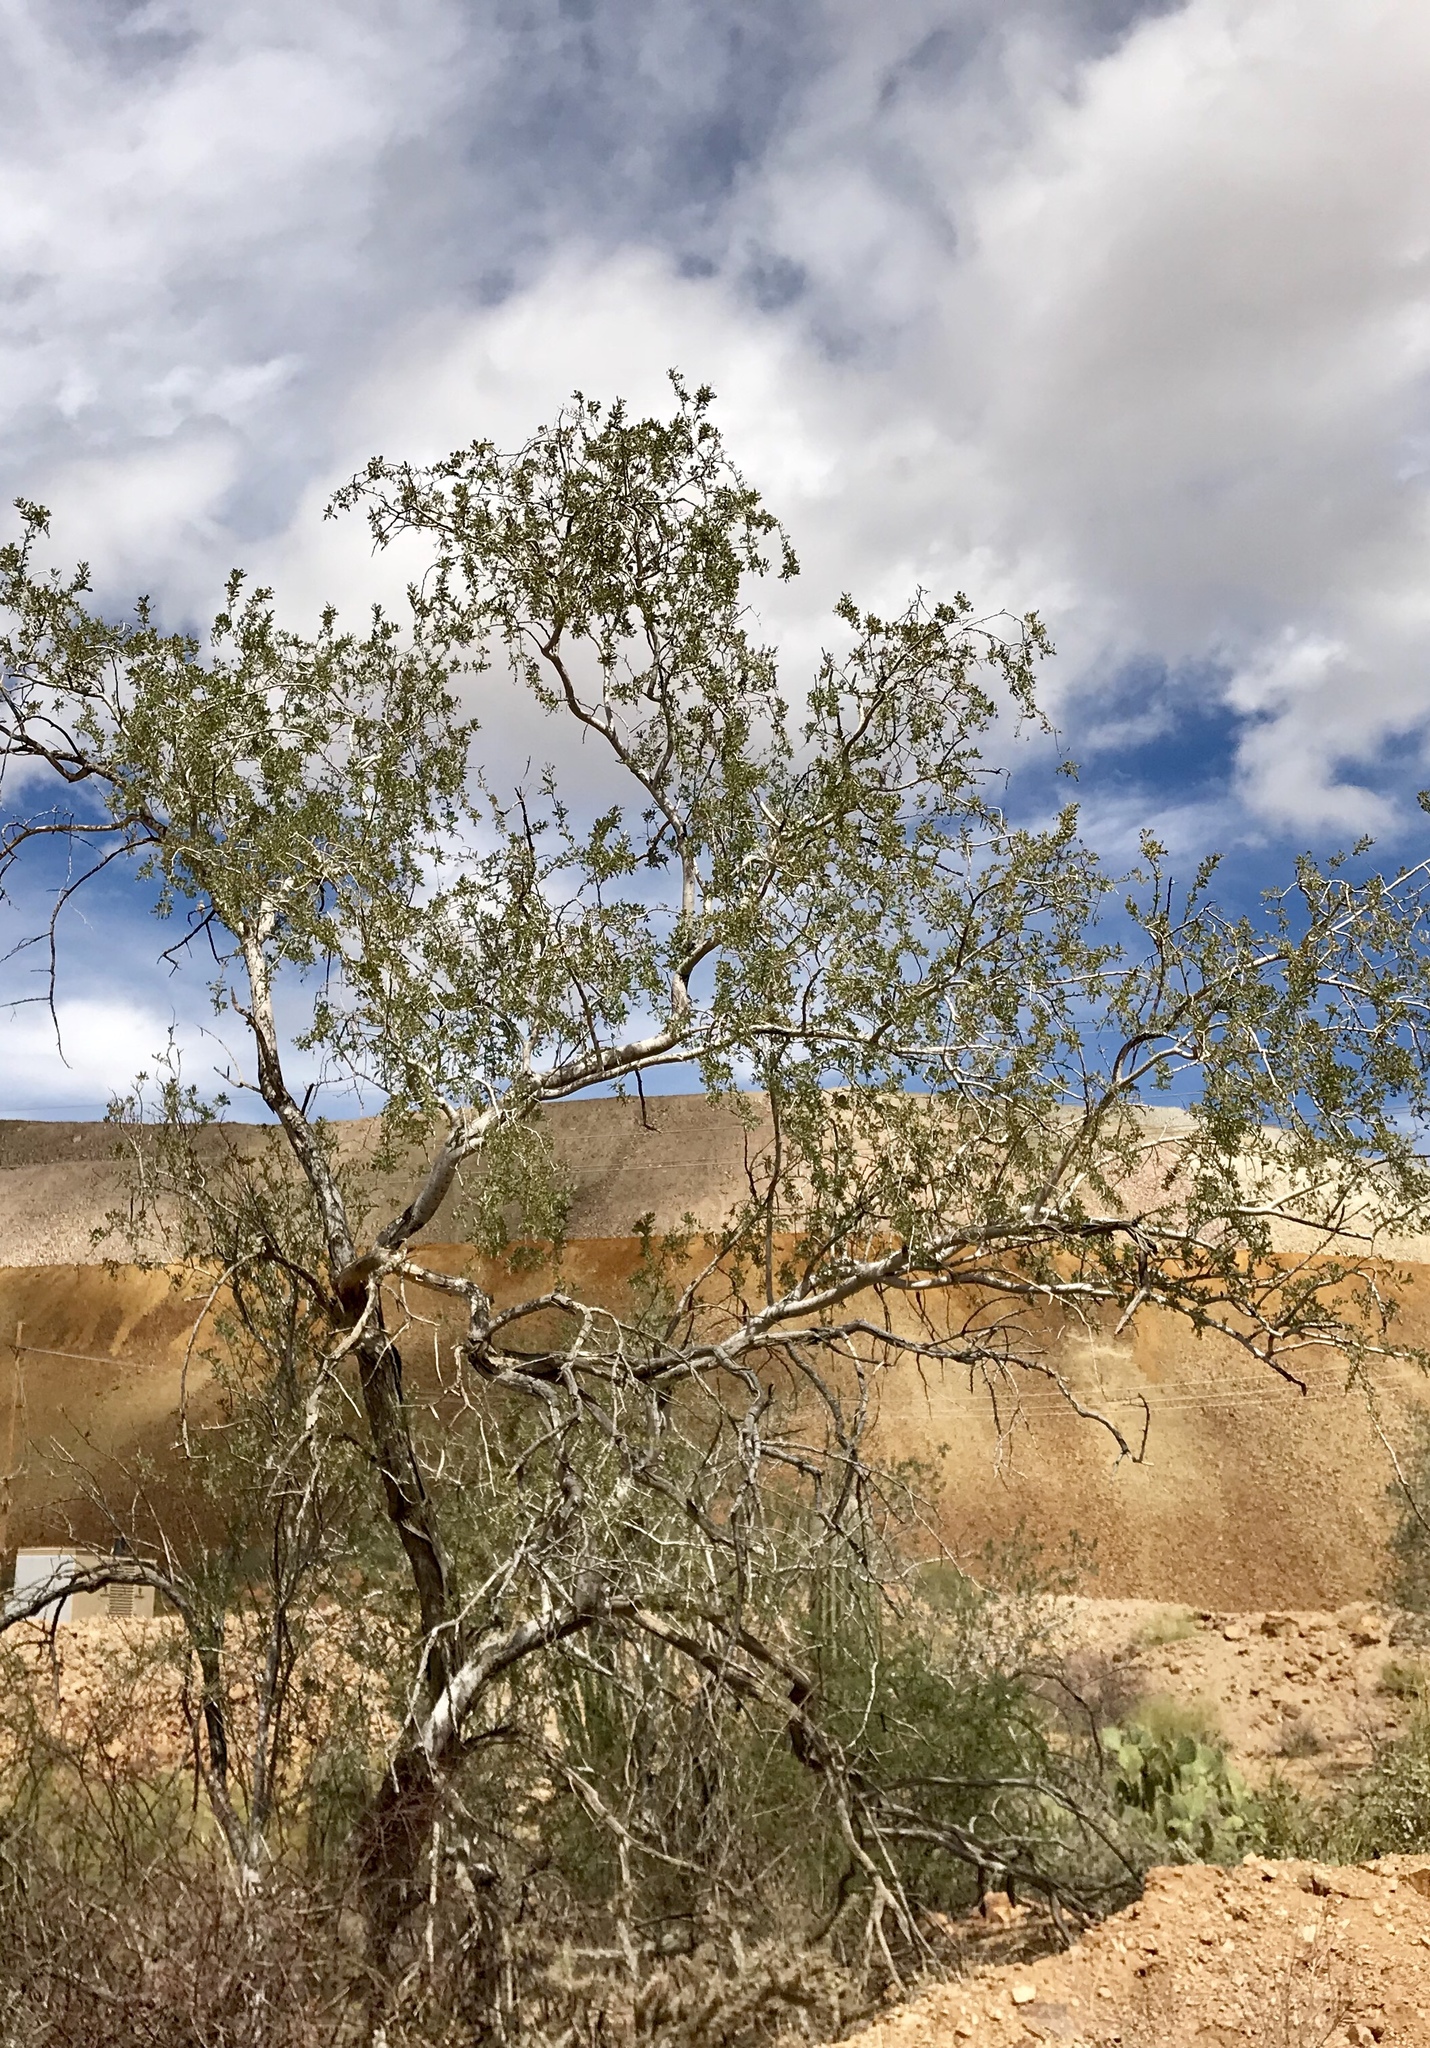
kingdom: Plantae
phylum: Tracheophyta
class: Magnoliopsida
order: Fabales
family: Fabaceae
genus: Olneya
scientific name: Olneya tesota
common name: Desert ironwood
